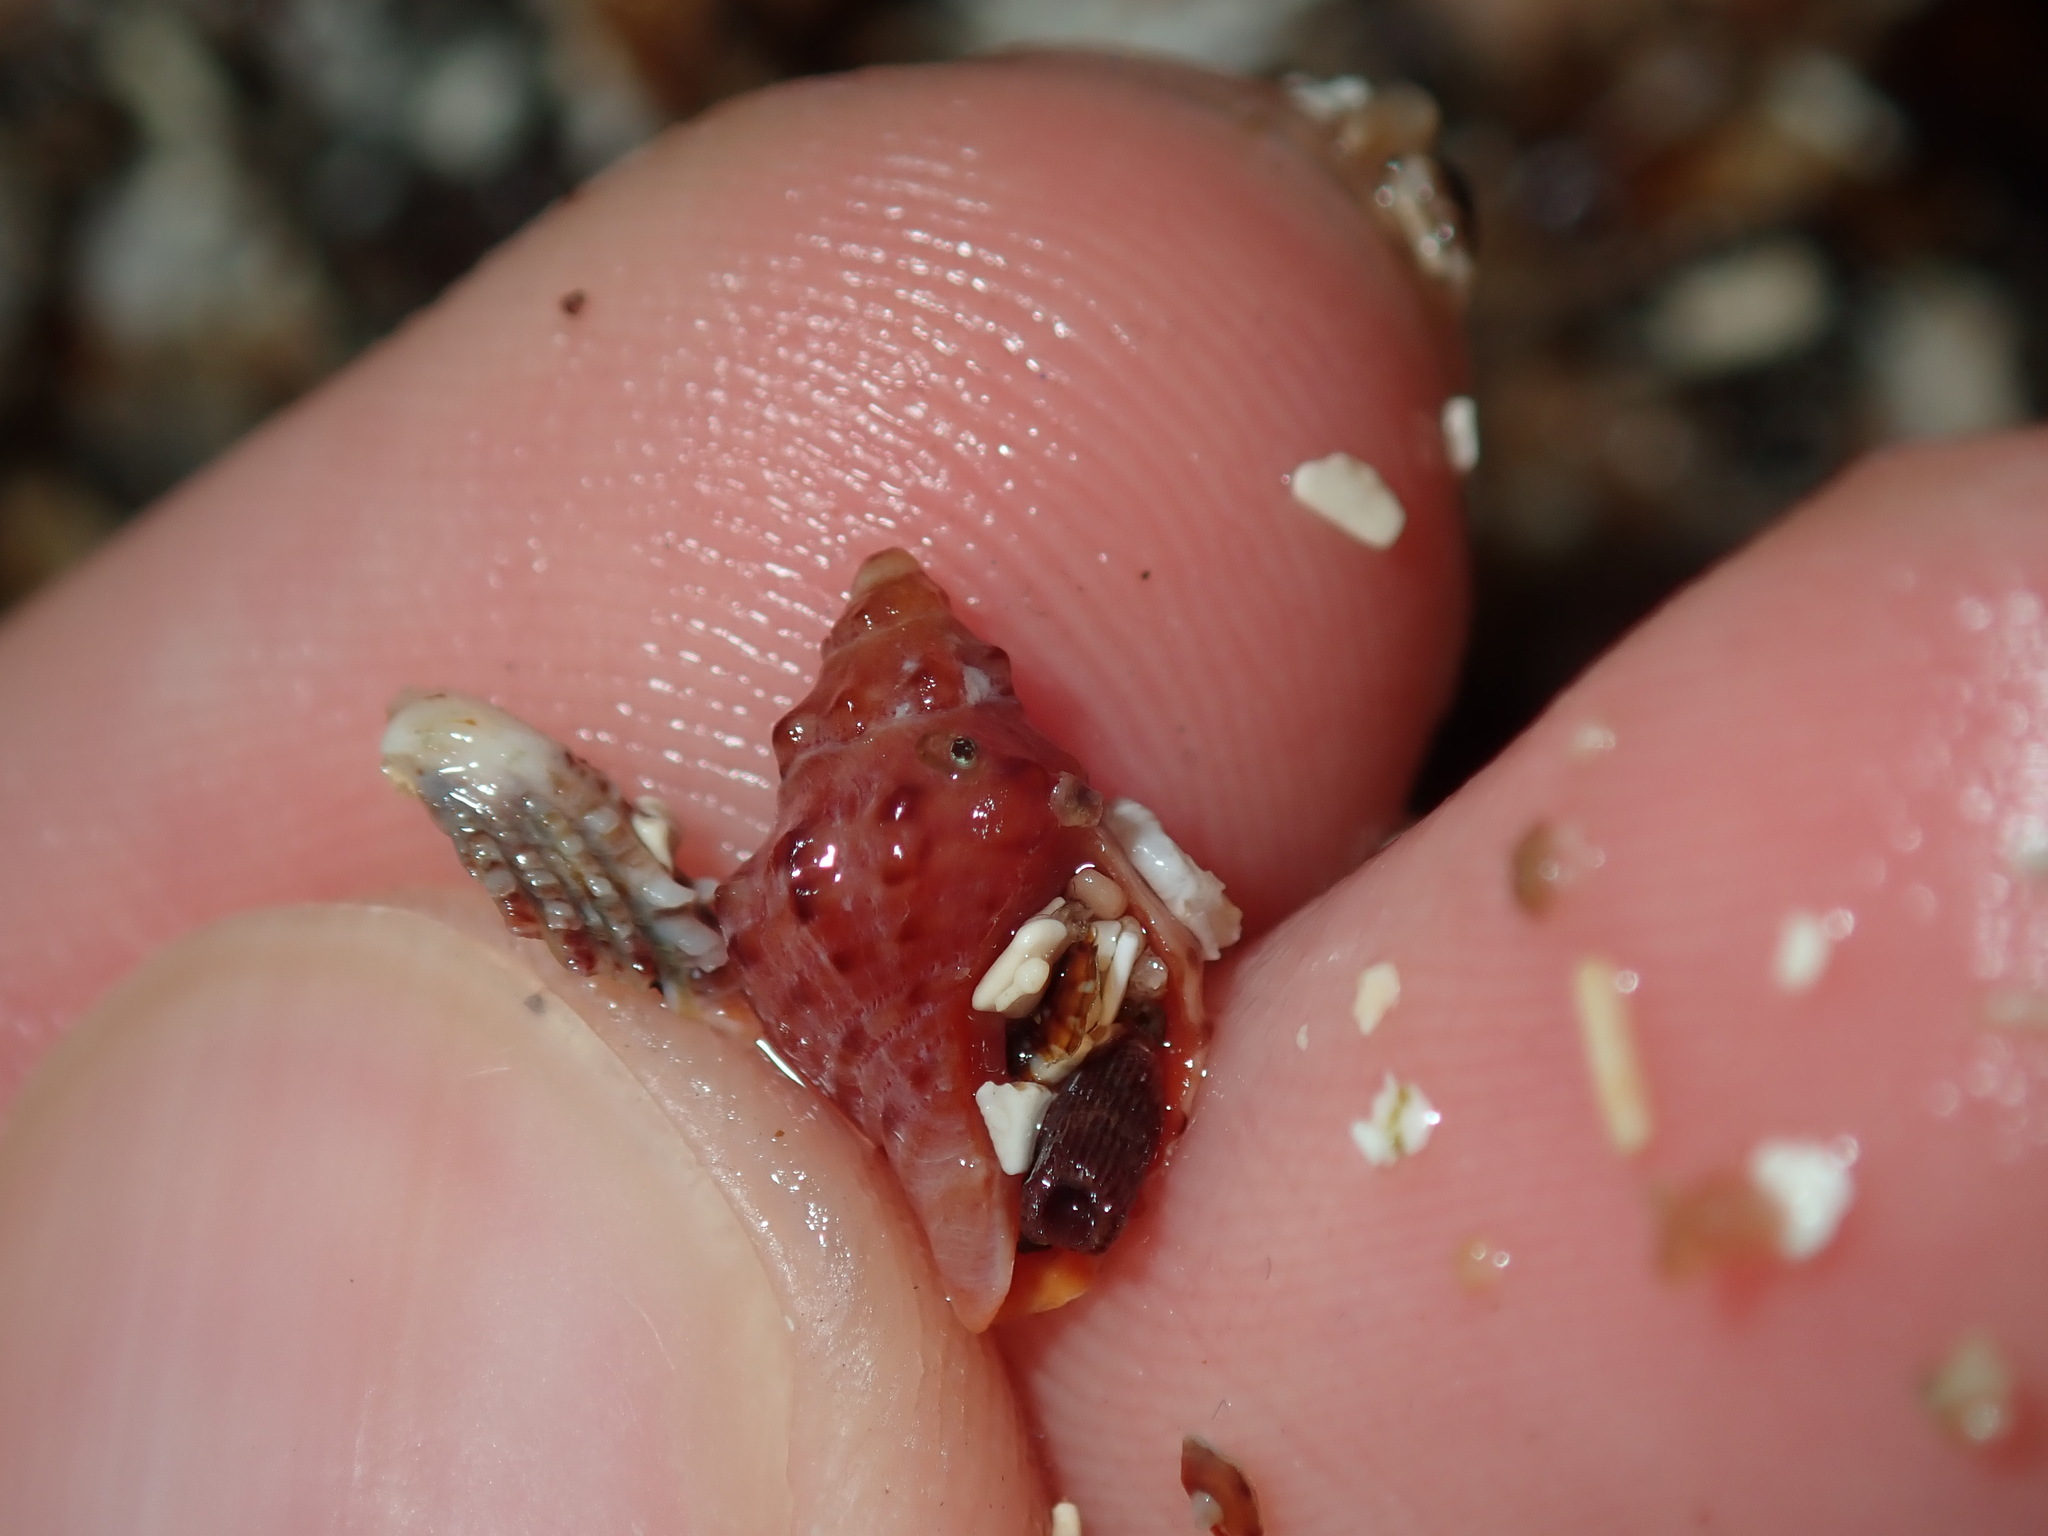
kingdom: Animalia
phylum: Mollusca
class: Gastropoda
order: Neogastropoda
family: Muricidae
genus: Phycothais
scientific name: Phycothais reticulata
